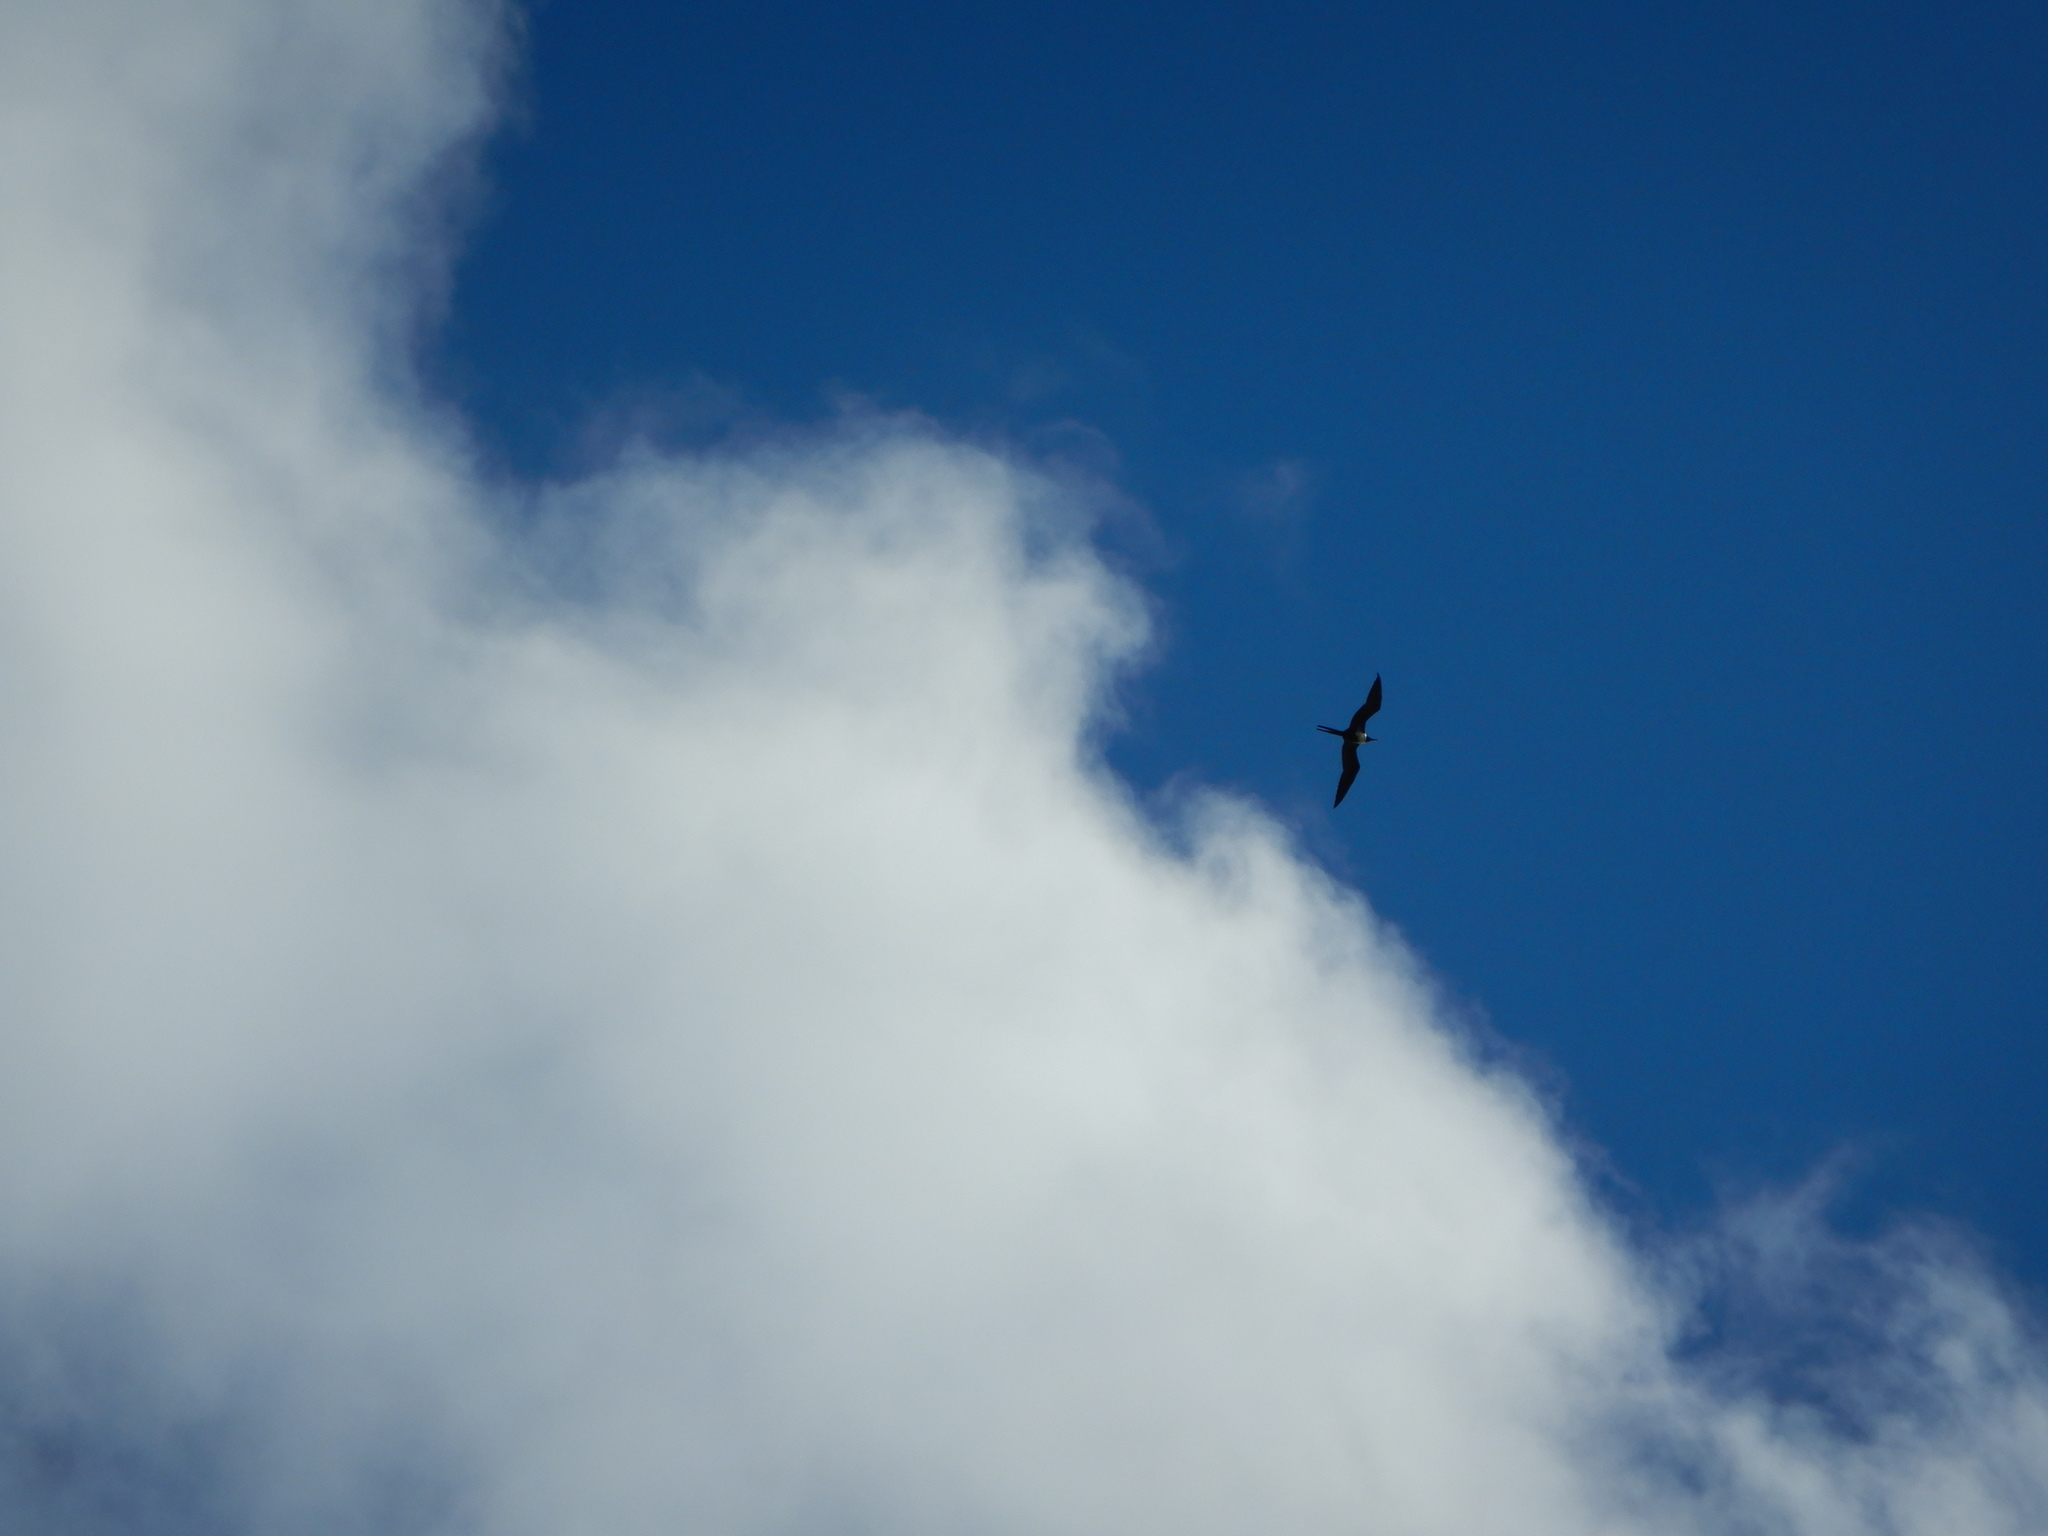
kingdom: Animalia
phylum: Chordata
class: Aves
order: Suliformes
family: Fregatidae
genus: Fregata
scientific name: Fregata minor
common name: Great frigatebird
